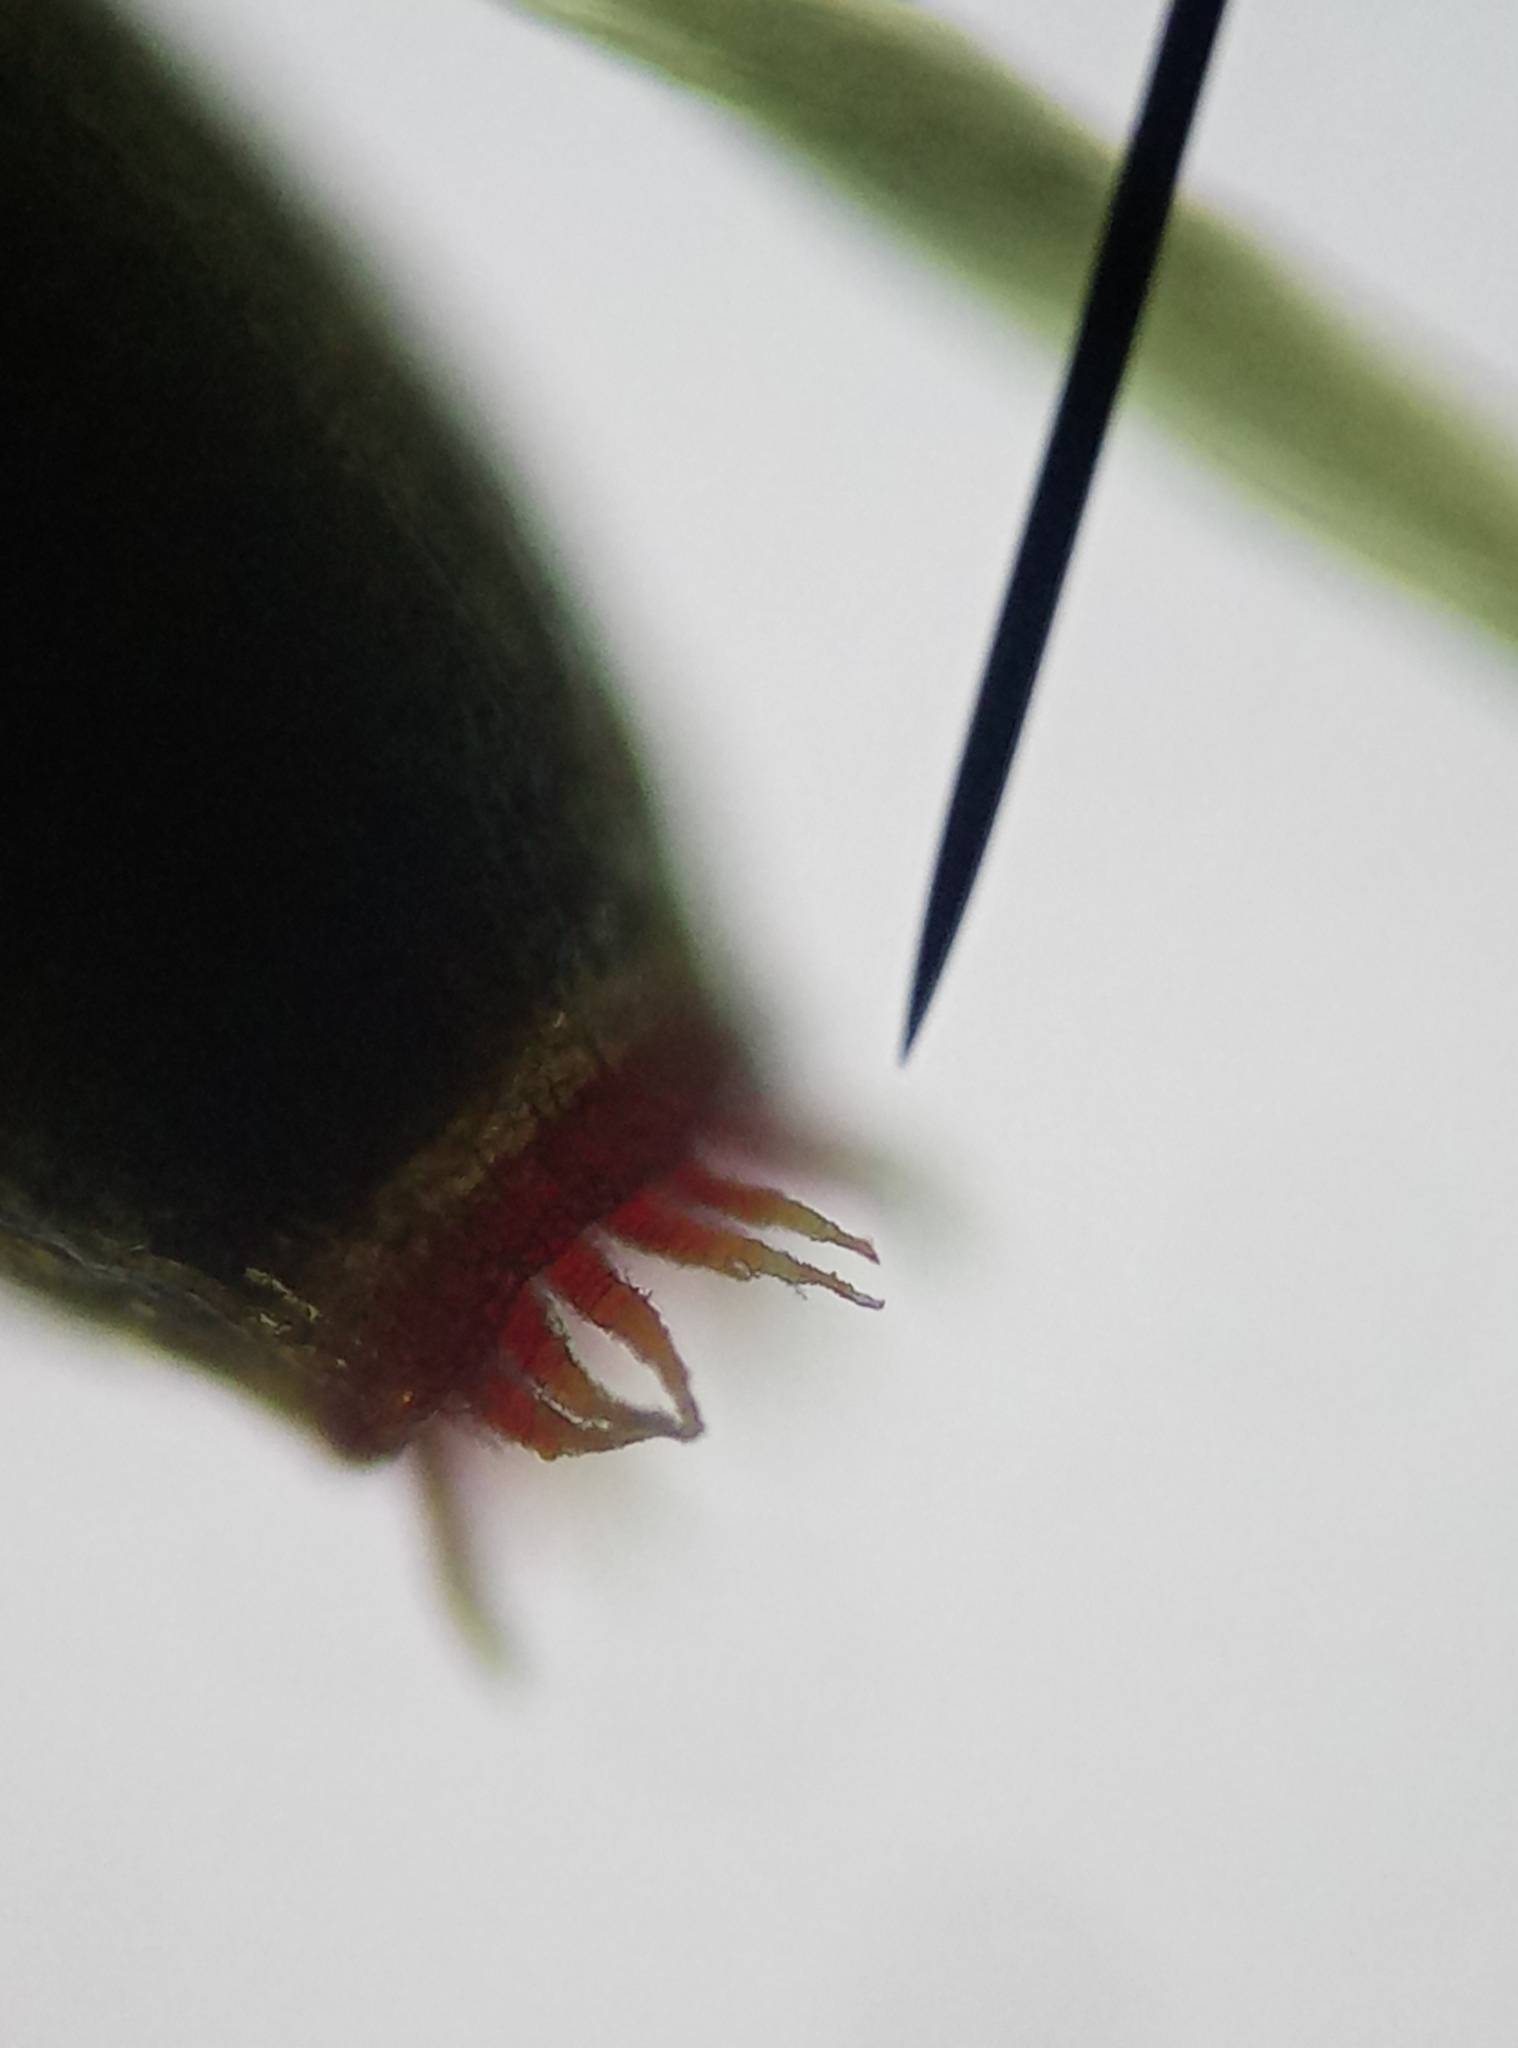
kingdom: Plantae
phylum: Bryophyta
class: Bryopsida
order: Dicranales
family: Rhabdoweisiaceae
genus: Dicranoweisia
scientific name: Dicranoweisia cirrata
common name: Common pincushion
